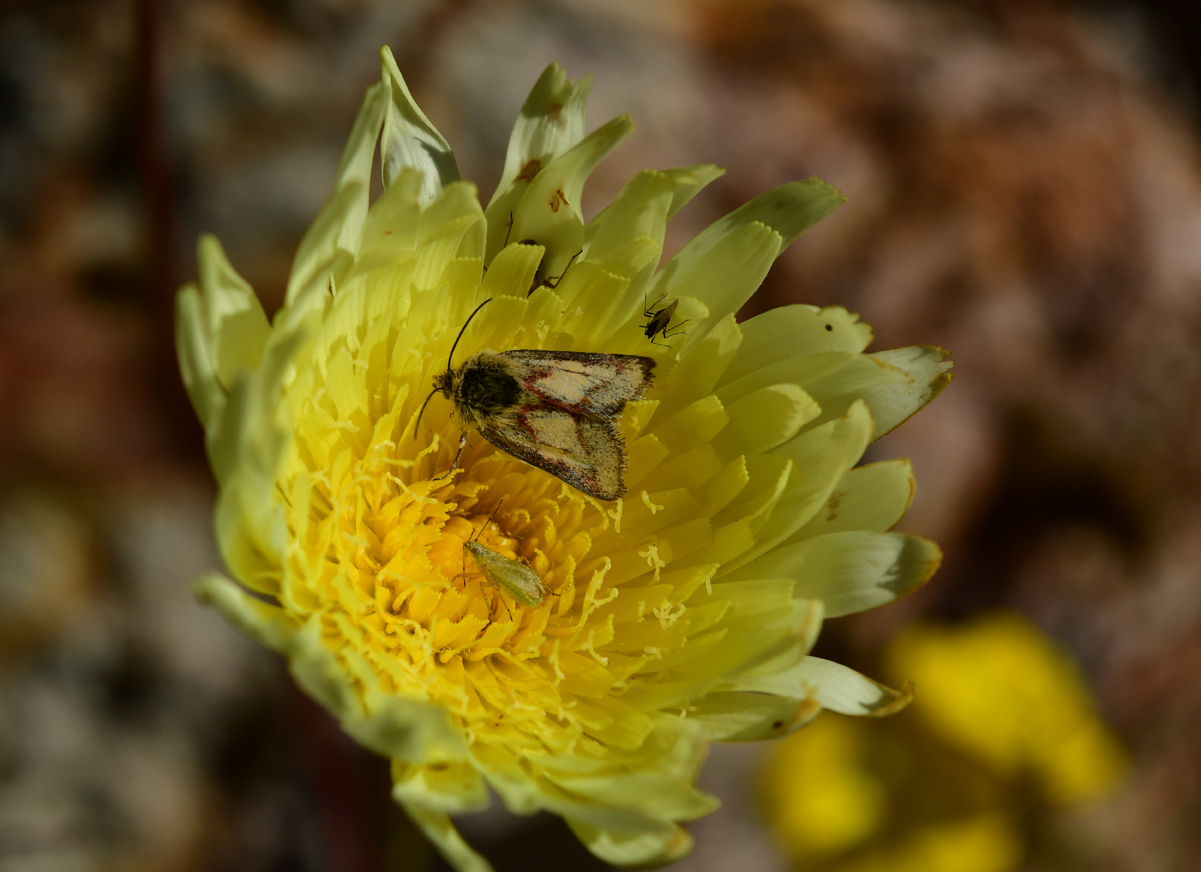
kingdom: Animalia
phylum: Arthropoda
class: Insecta
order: Lepidoptera
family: Noctuidae
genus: Heliolonche
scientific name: Heliolonche pictipennis
